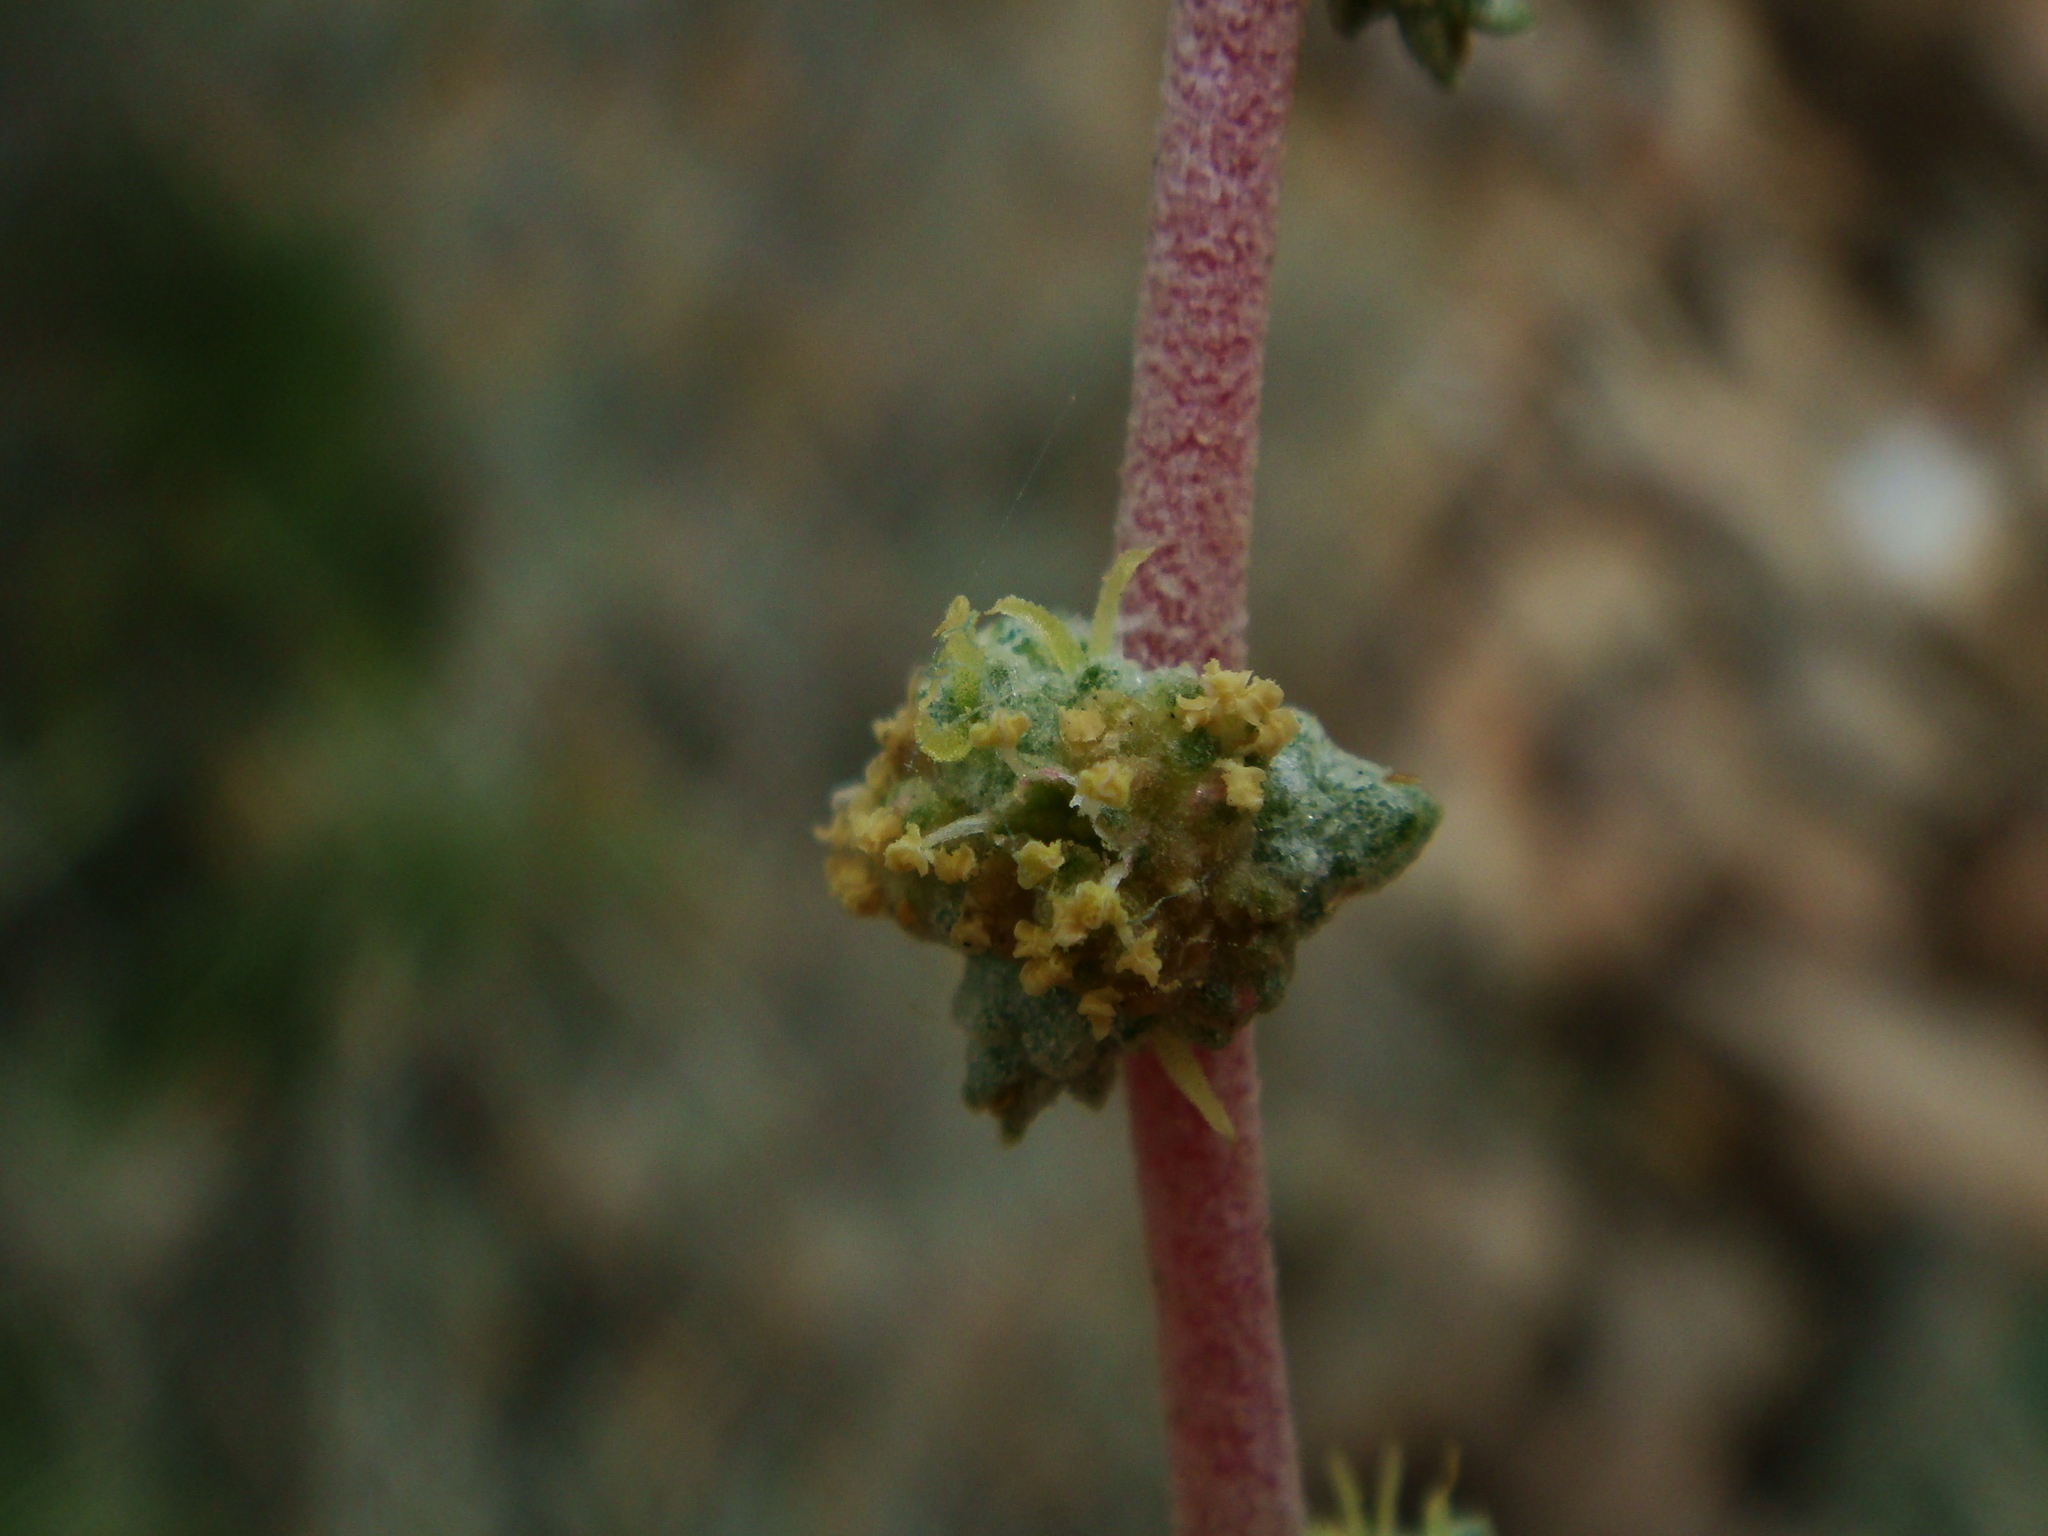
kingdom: Plantae
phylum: Tracheophyta
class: Magnoliopsida
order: Caryophyllales
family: Amaranthaceae
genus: Atriplex
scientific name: Atriplex glauca
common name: Waxy saltbush
